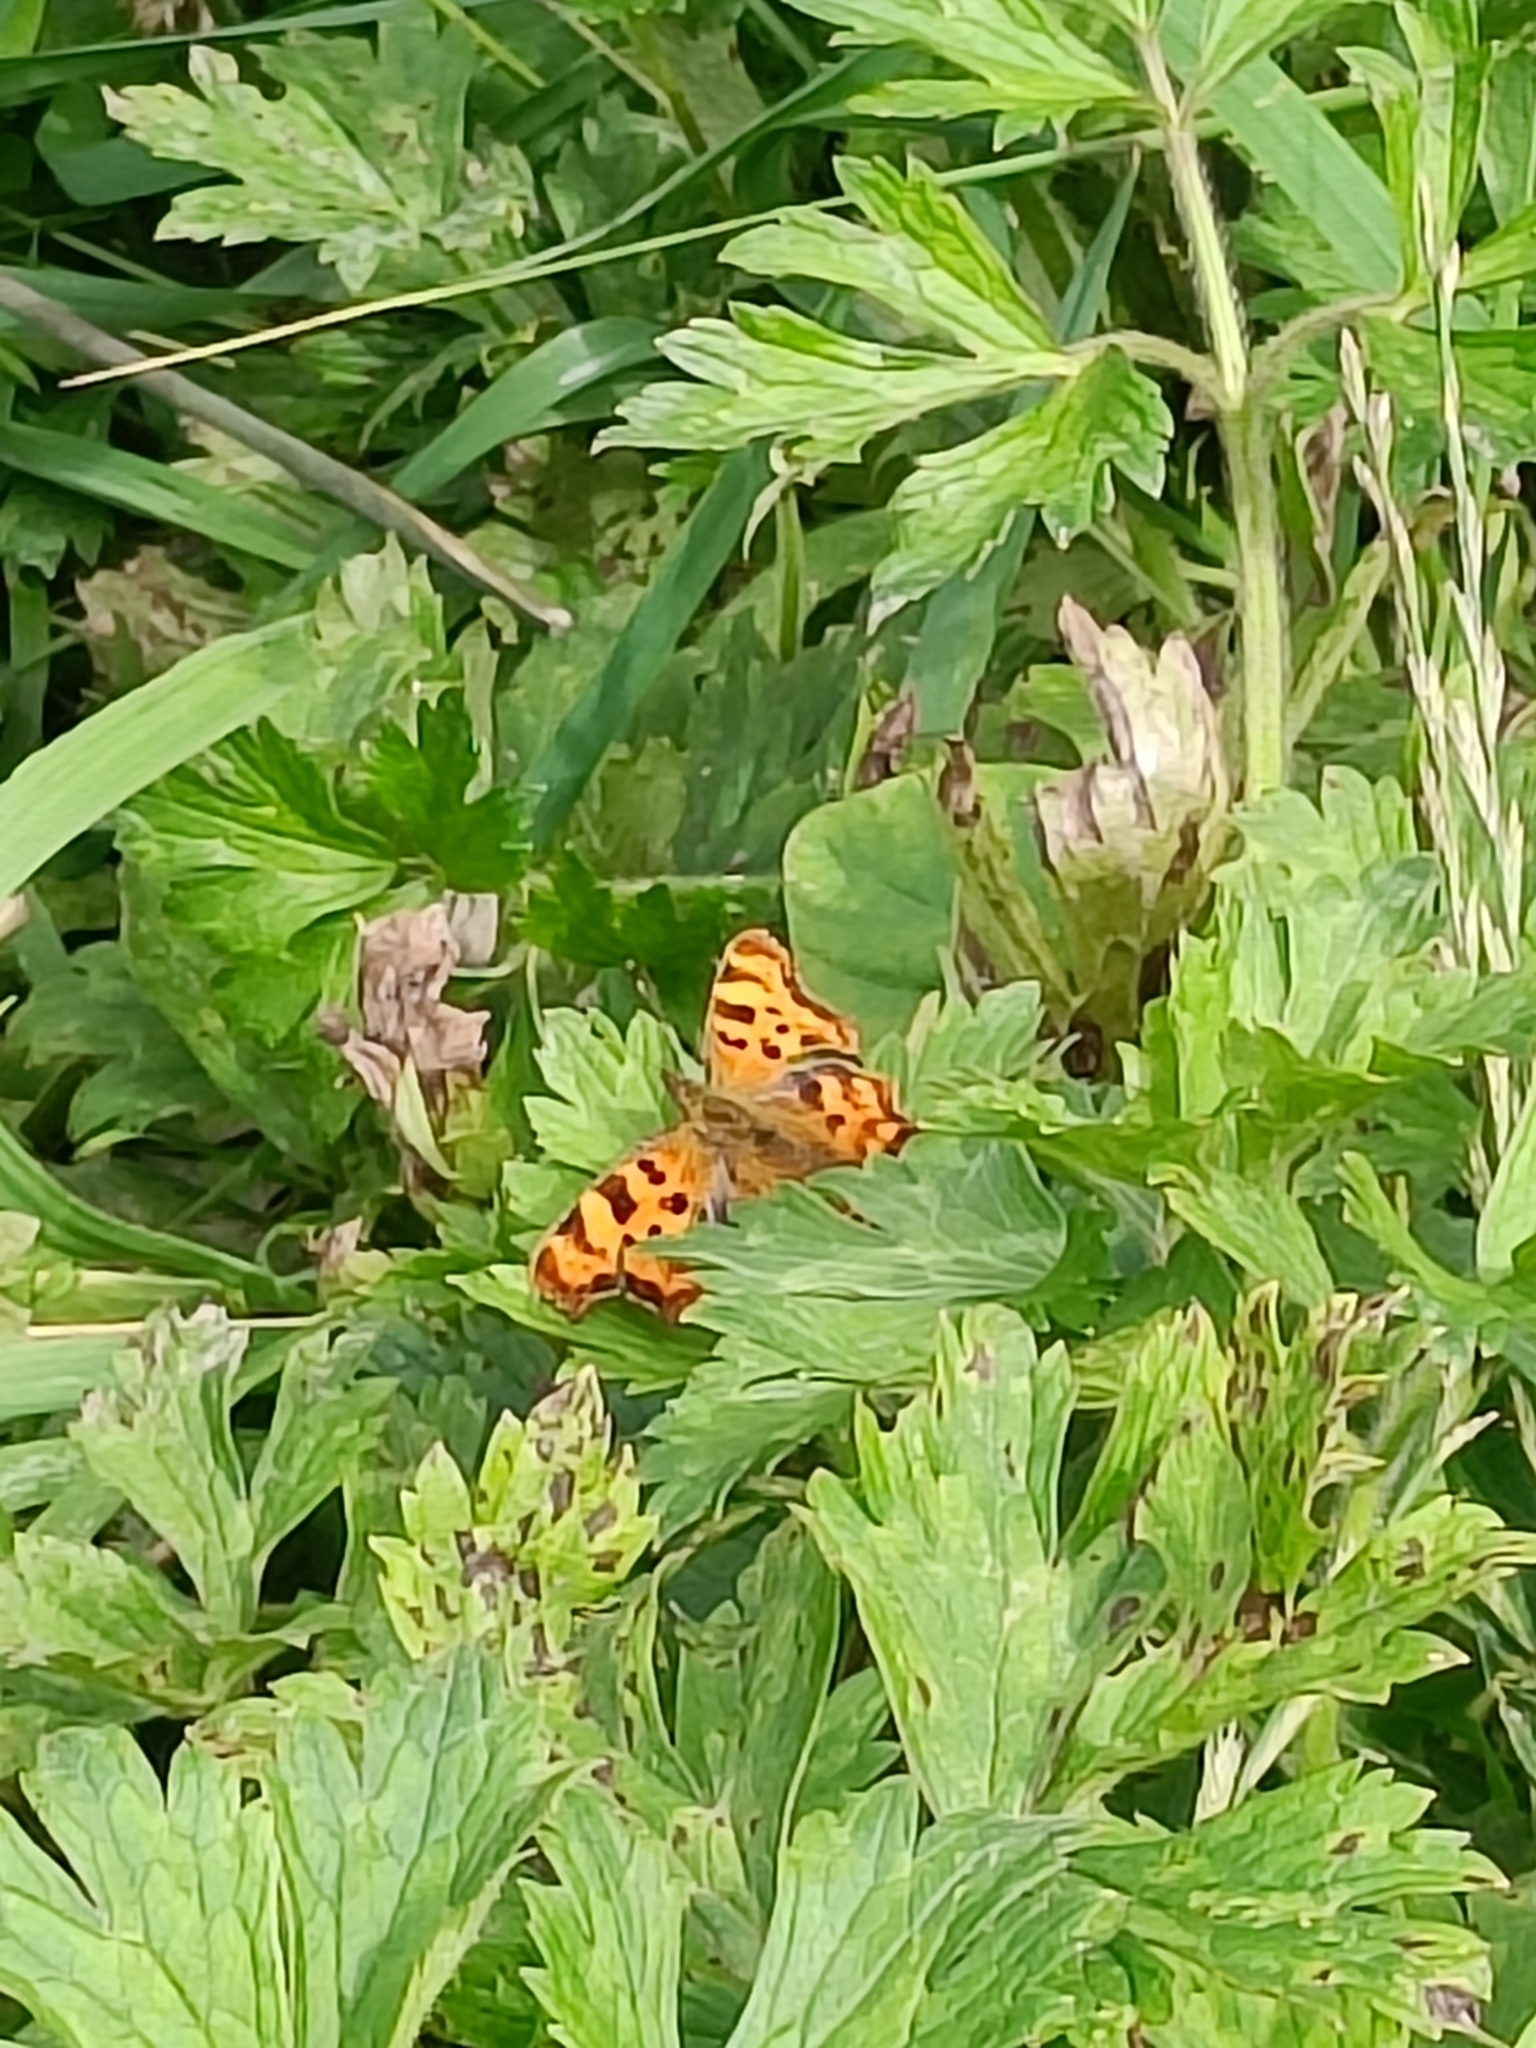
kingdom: Animalia
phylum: Arthropoda
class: Insecta
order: Lepidoptera
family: Nymphalidae
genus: Polygonia
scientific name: Polygonia c-album
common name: Comma
